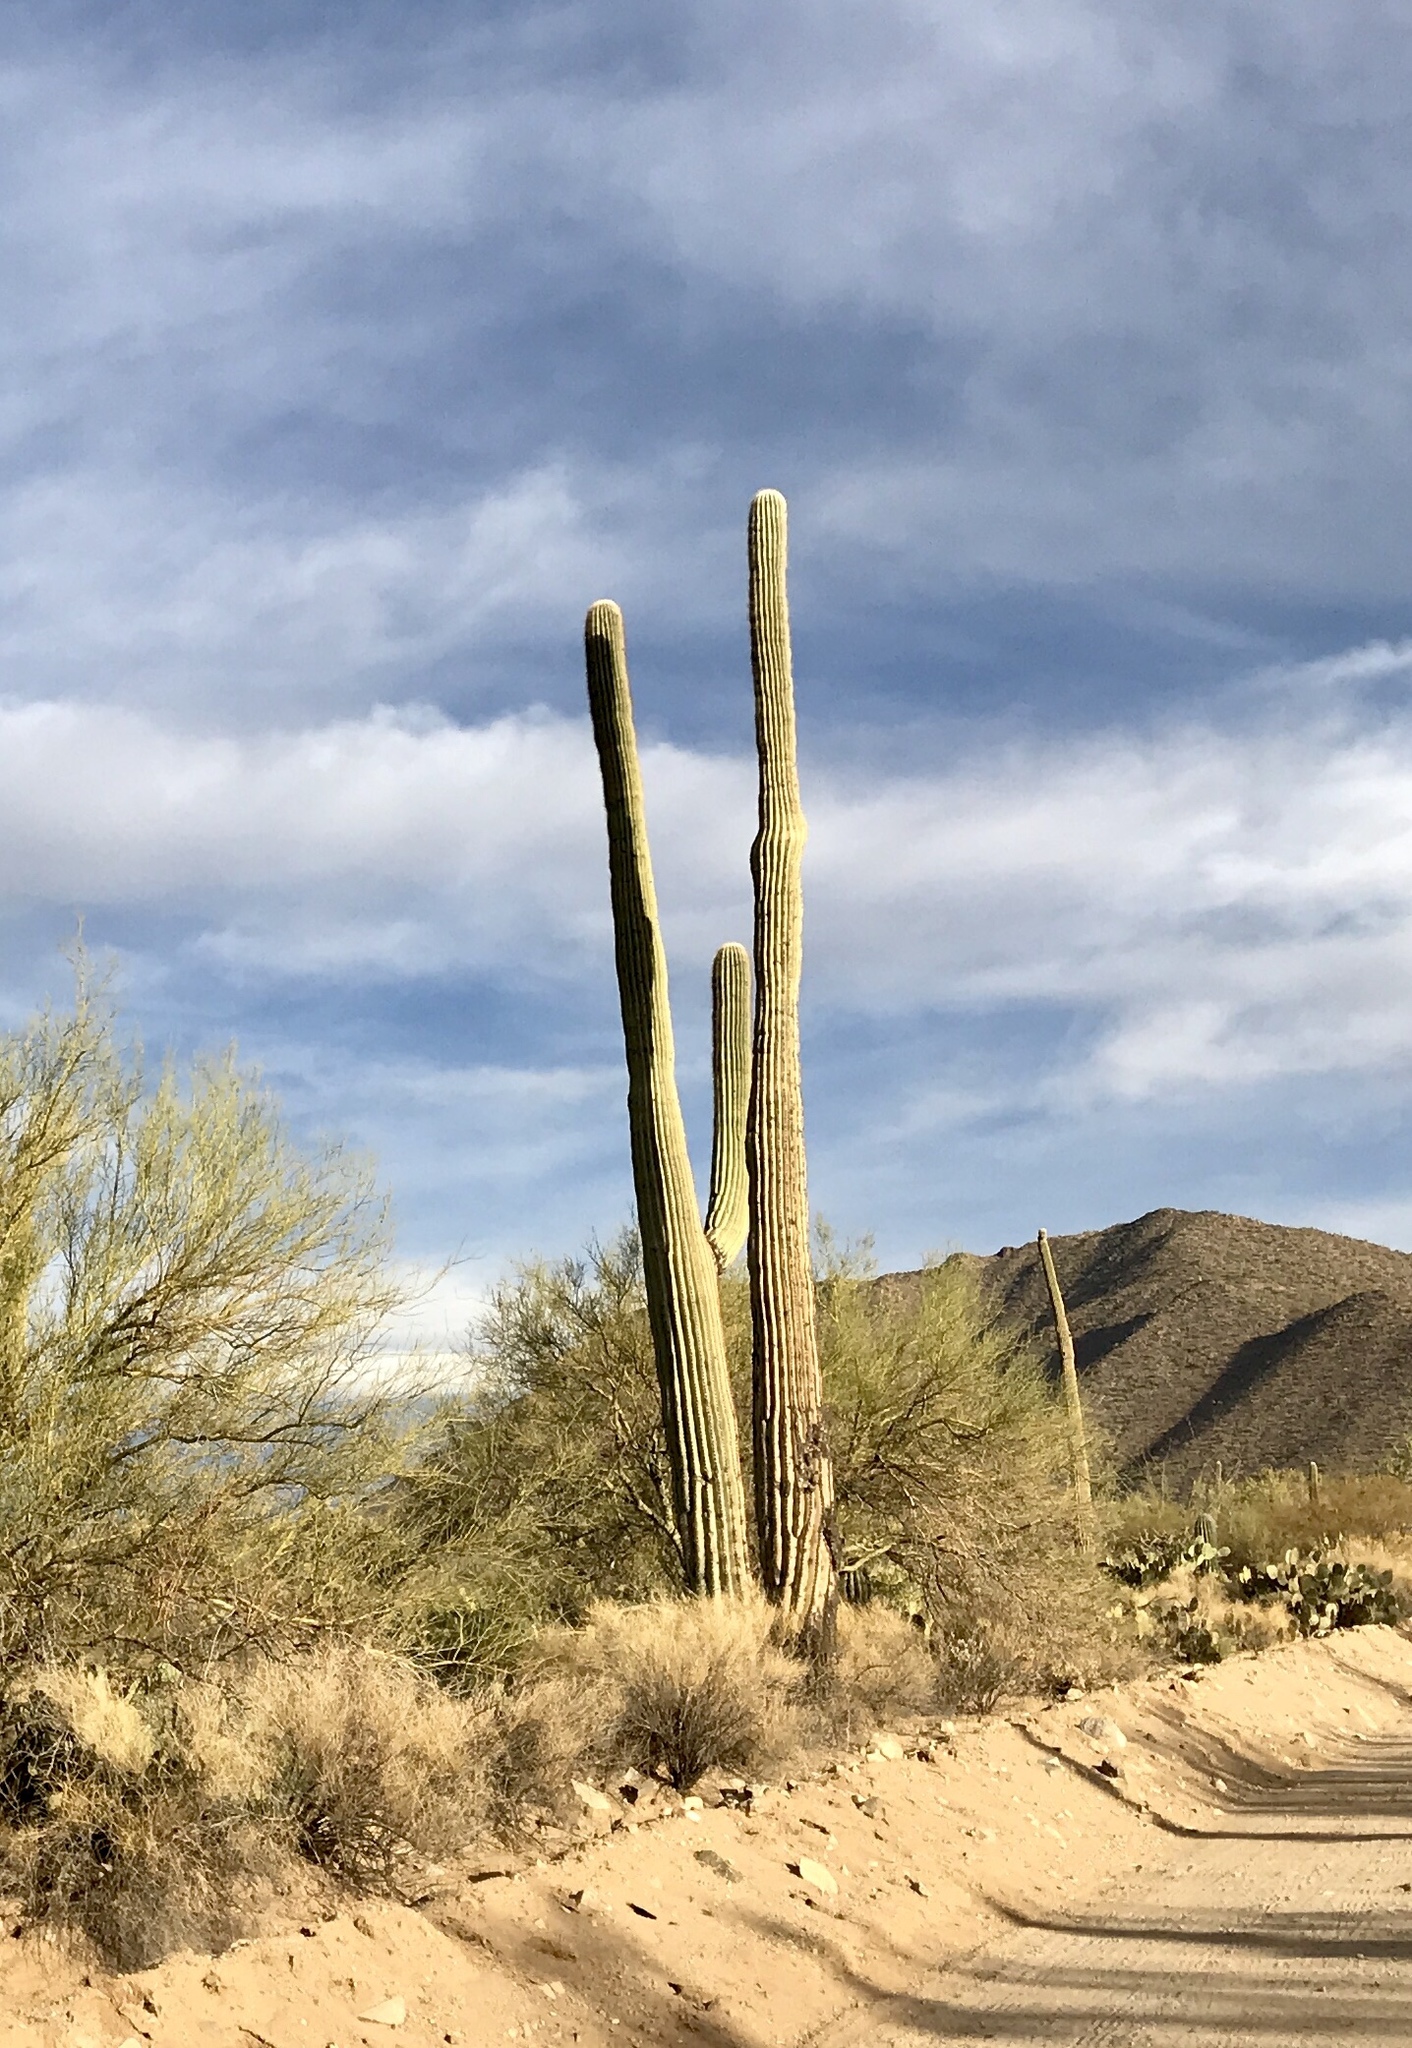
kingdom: Plantae
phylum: Tracheophyta
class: Magnoliopsida
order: Caryophyllales
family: Cactaceae
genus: Carnegiea
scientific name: Carnegiea gigantea
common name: Saguaro
